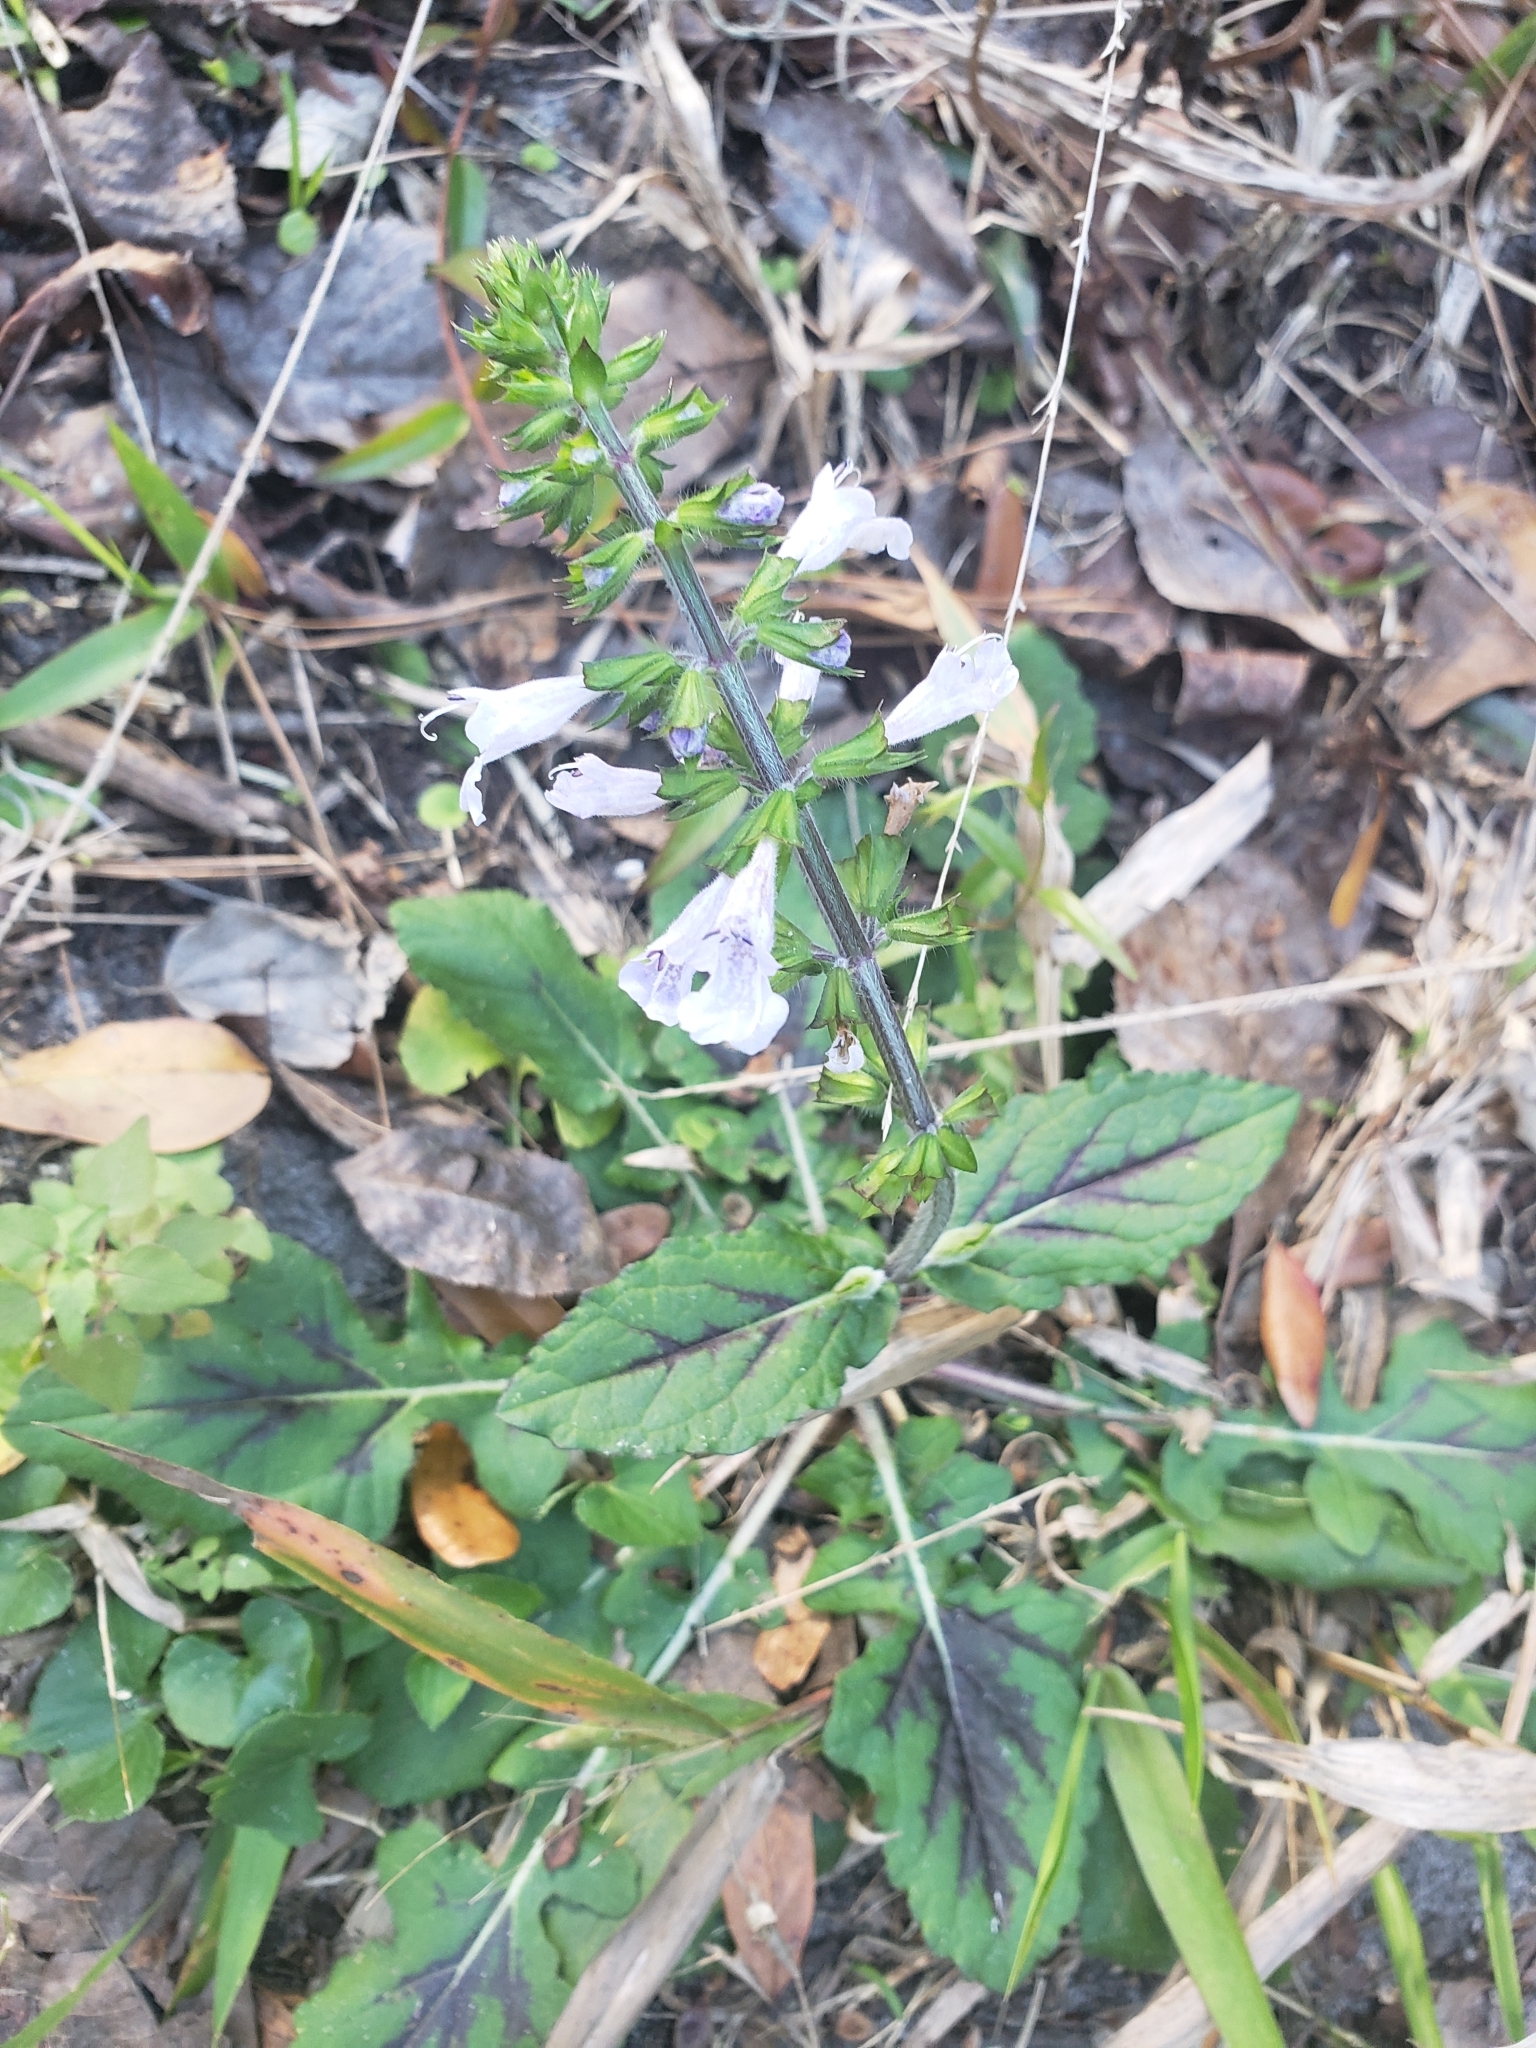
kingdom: Plantae
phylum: Tracheophyta
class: Magnoliopsida
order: Lamiales
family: Lamiaceae
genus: Salvia
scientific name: Salvia lyrata
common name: Cancerweed
